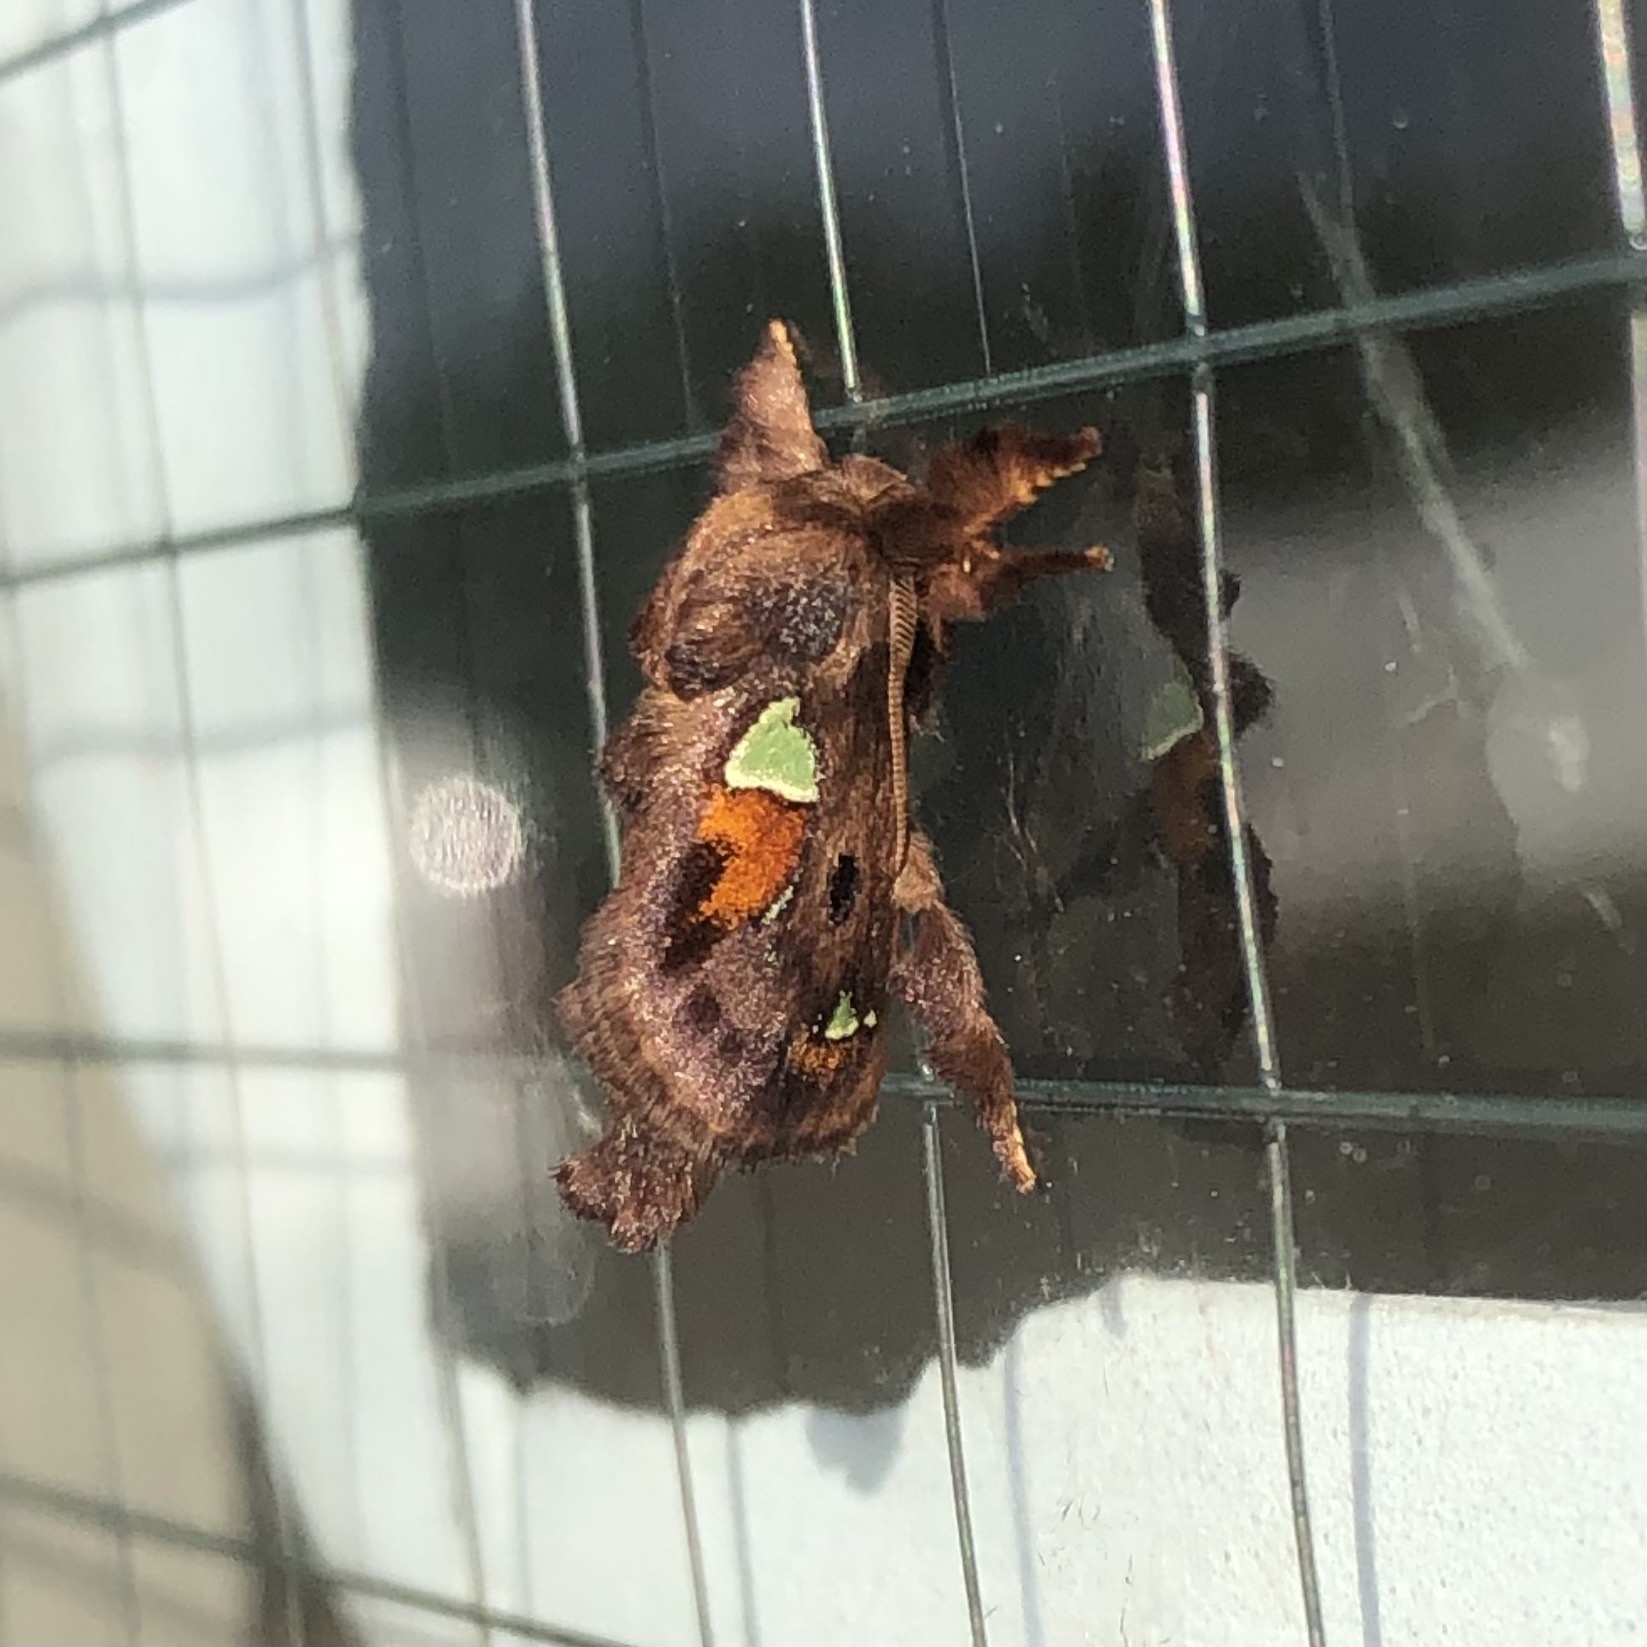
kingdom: Animalia
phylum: Arthropoda
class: Insecta
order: Lepidoptera
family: Limacodidae
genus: Euclea
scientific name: Euclea delphinii
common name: Spiny oak-slug moth
